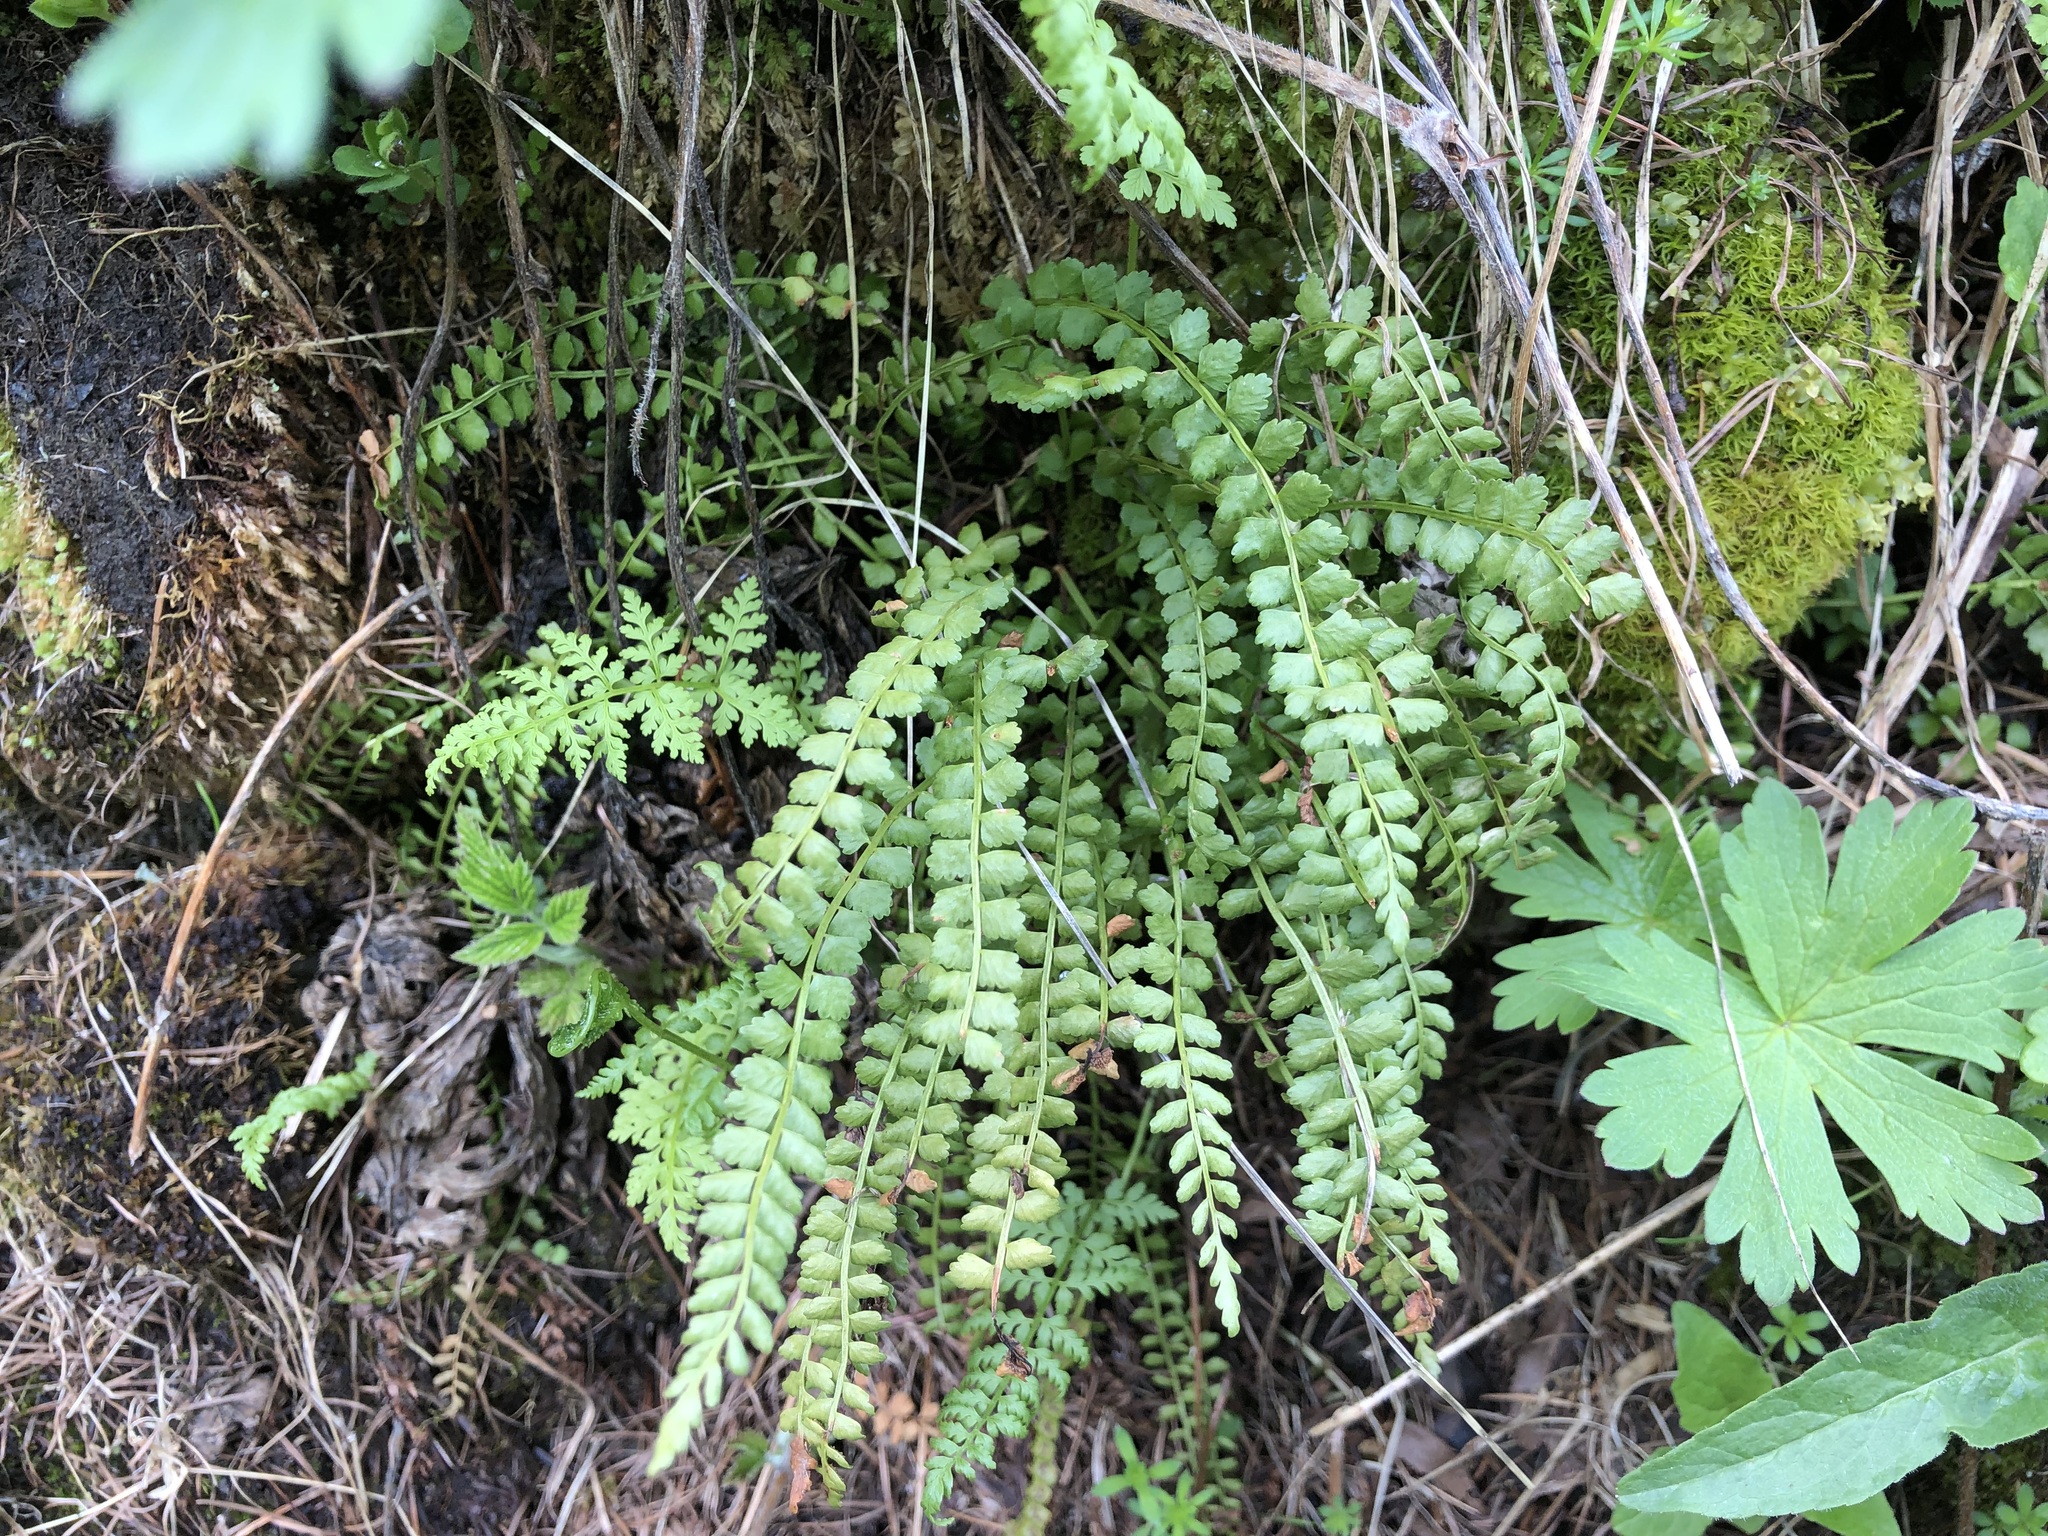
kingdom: Plantae
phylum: Tracheophyta
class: Polypodiopsida
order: Polypodiales
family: Aspleniaceae
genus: Asplenium
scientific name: Asplenium viride
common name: Green spleenwort
